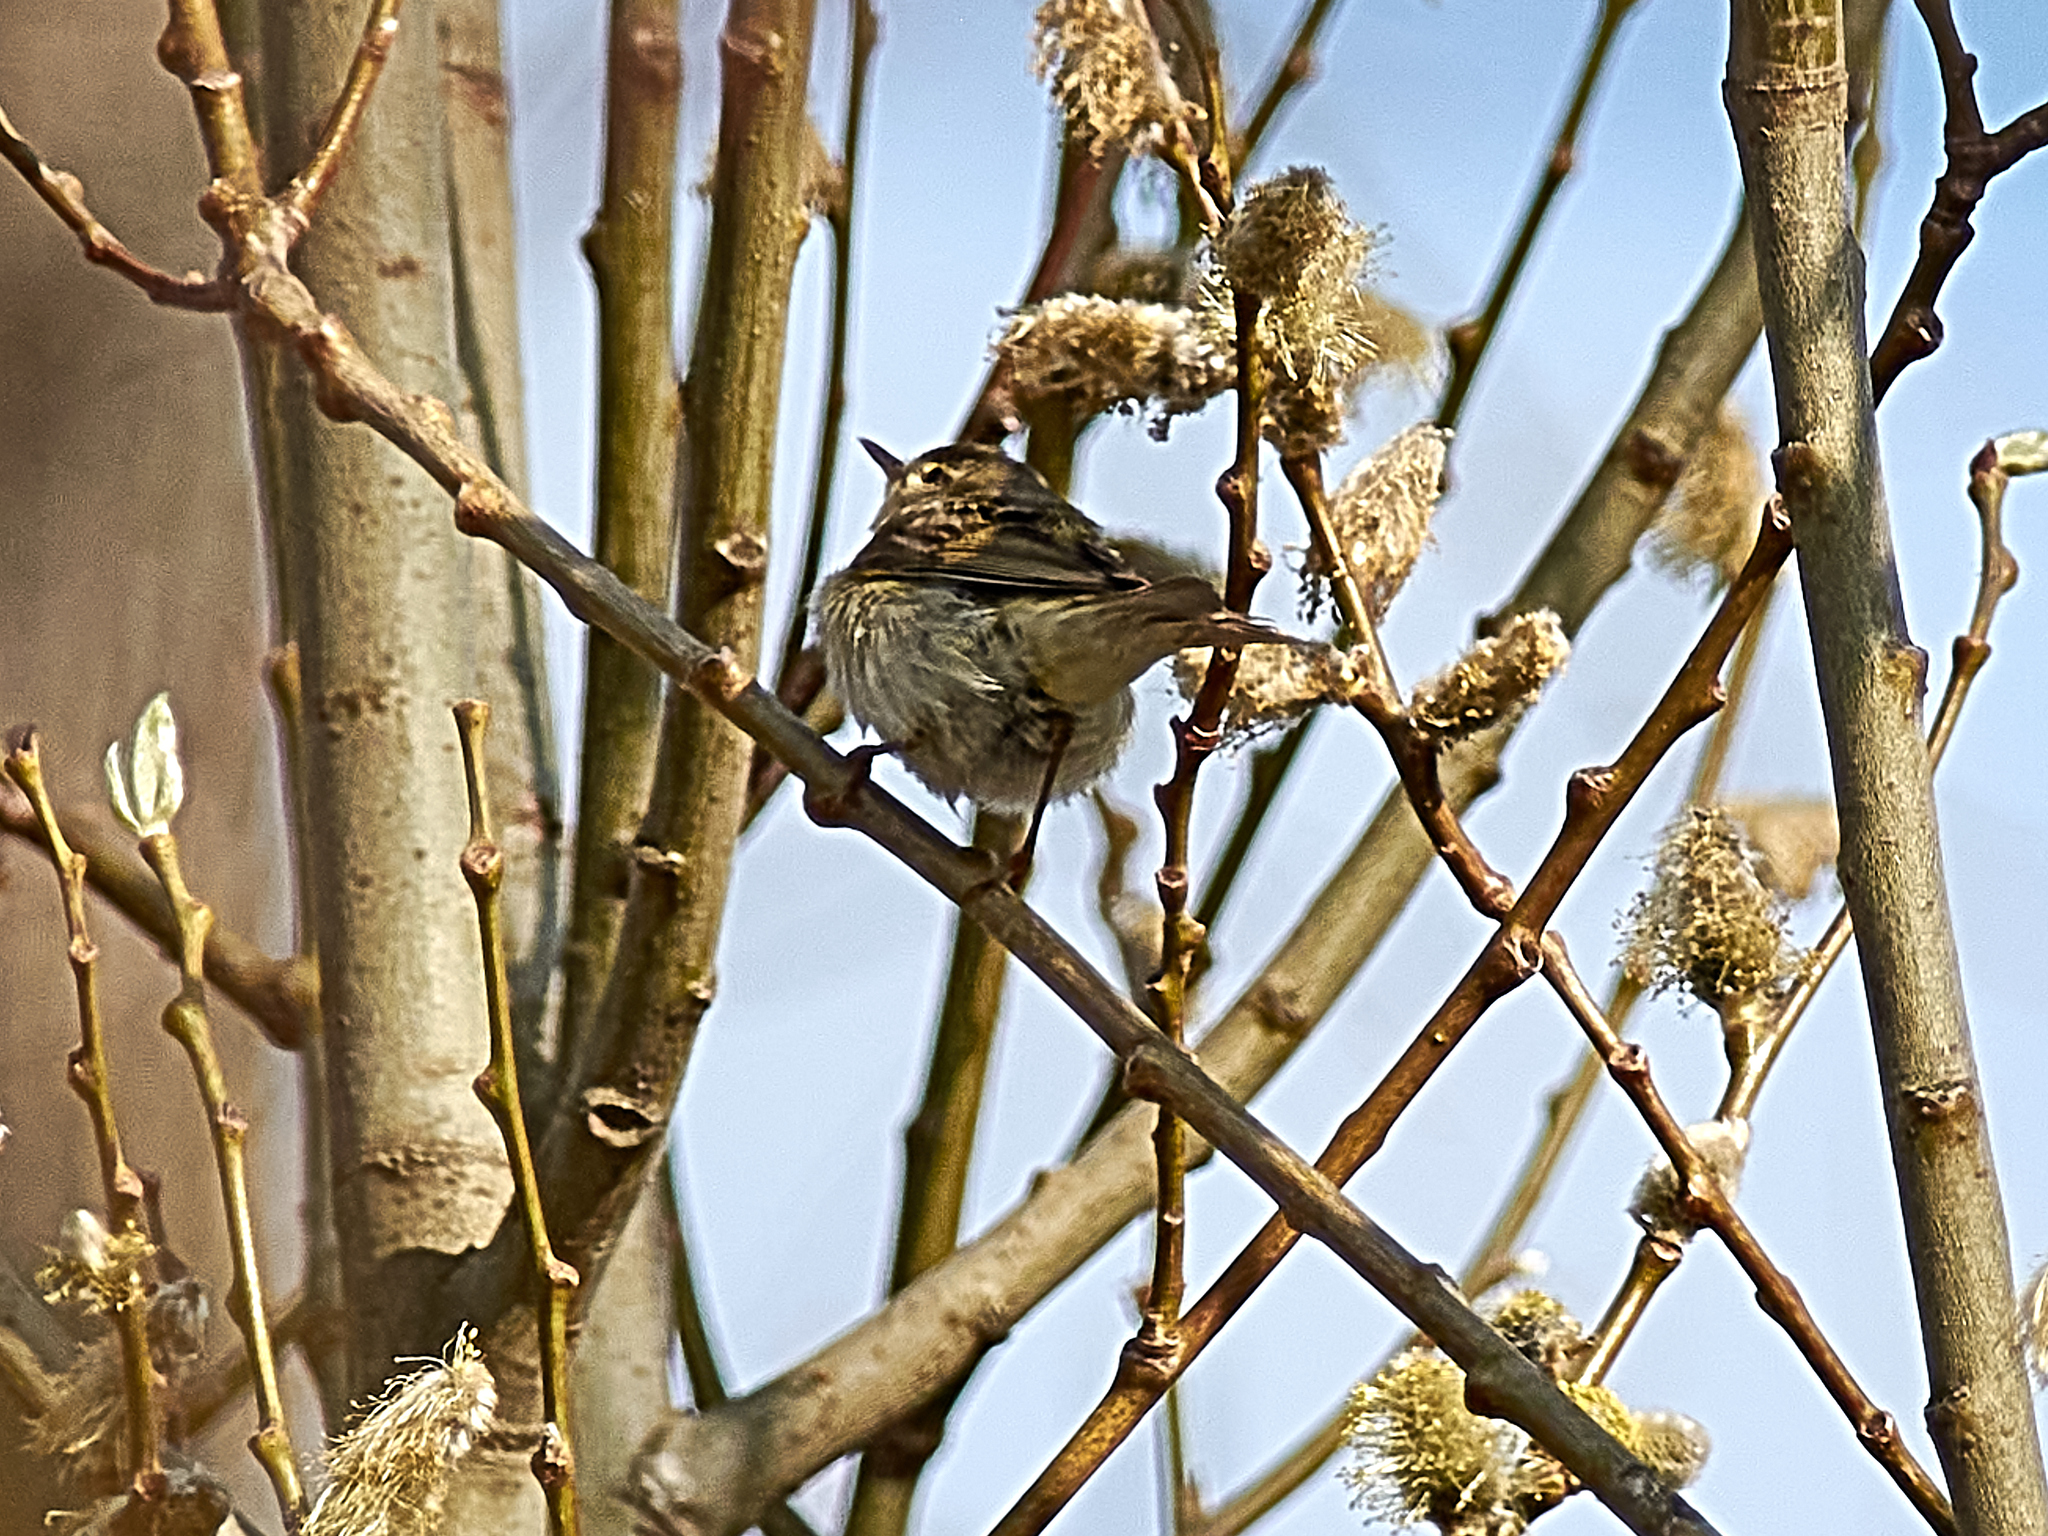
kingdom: Animalia
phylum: Chordata
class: Aves
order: Passeriformes
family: Phylloscopidae
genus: Phylloscopus
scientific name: Phylloscopus collybita
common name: Common chiffchaff
